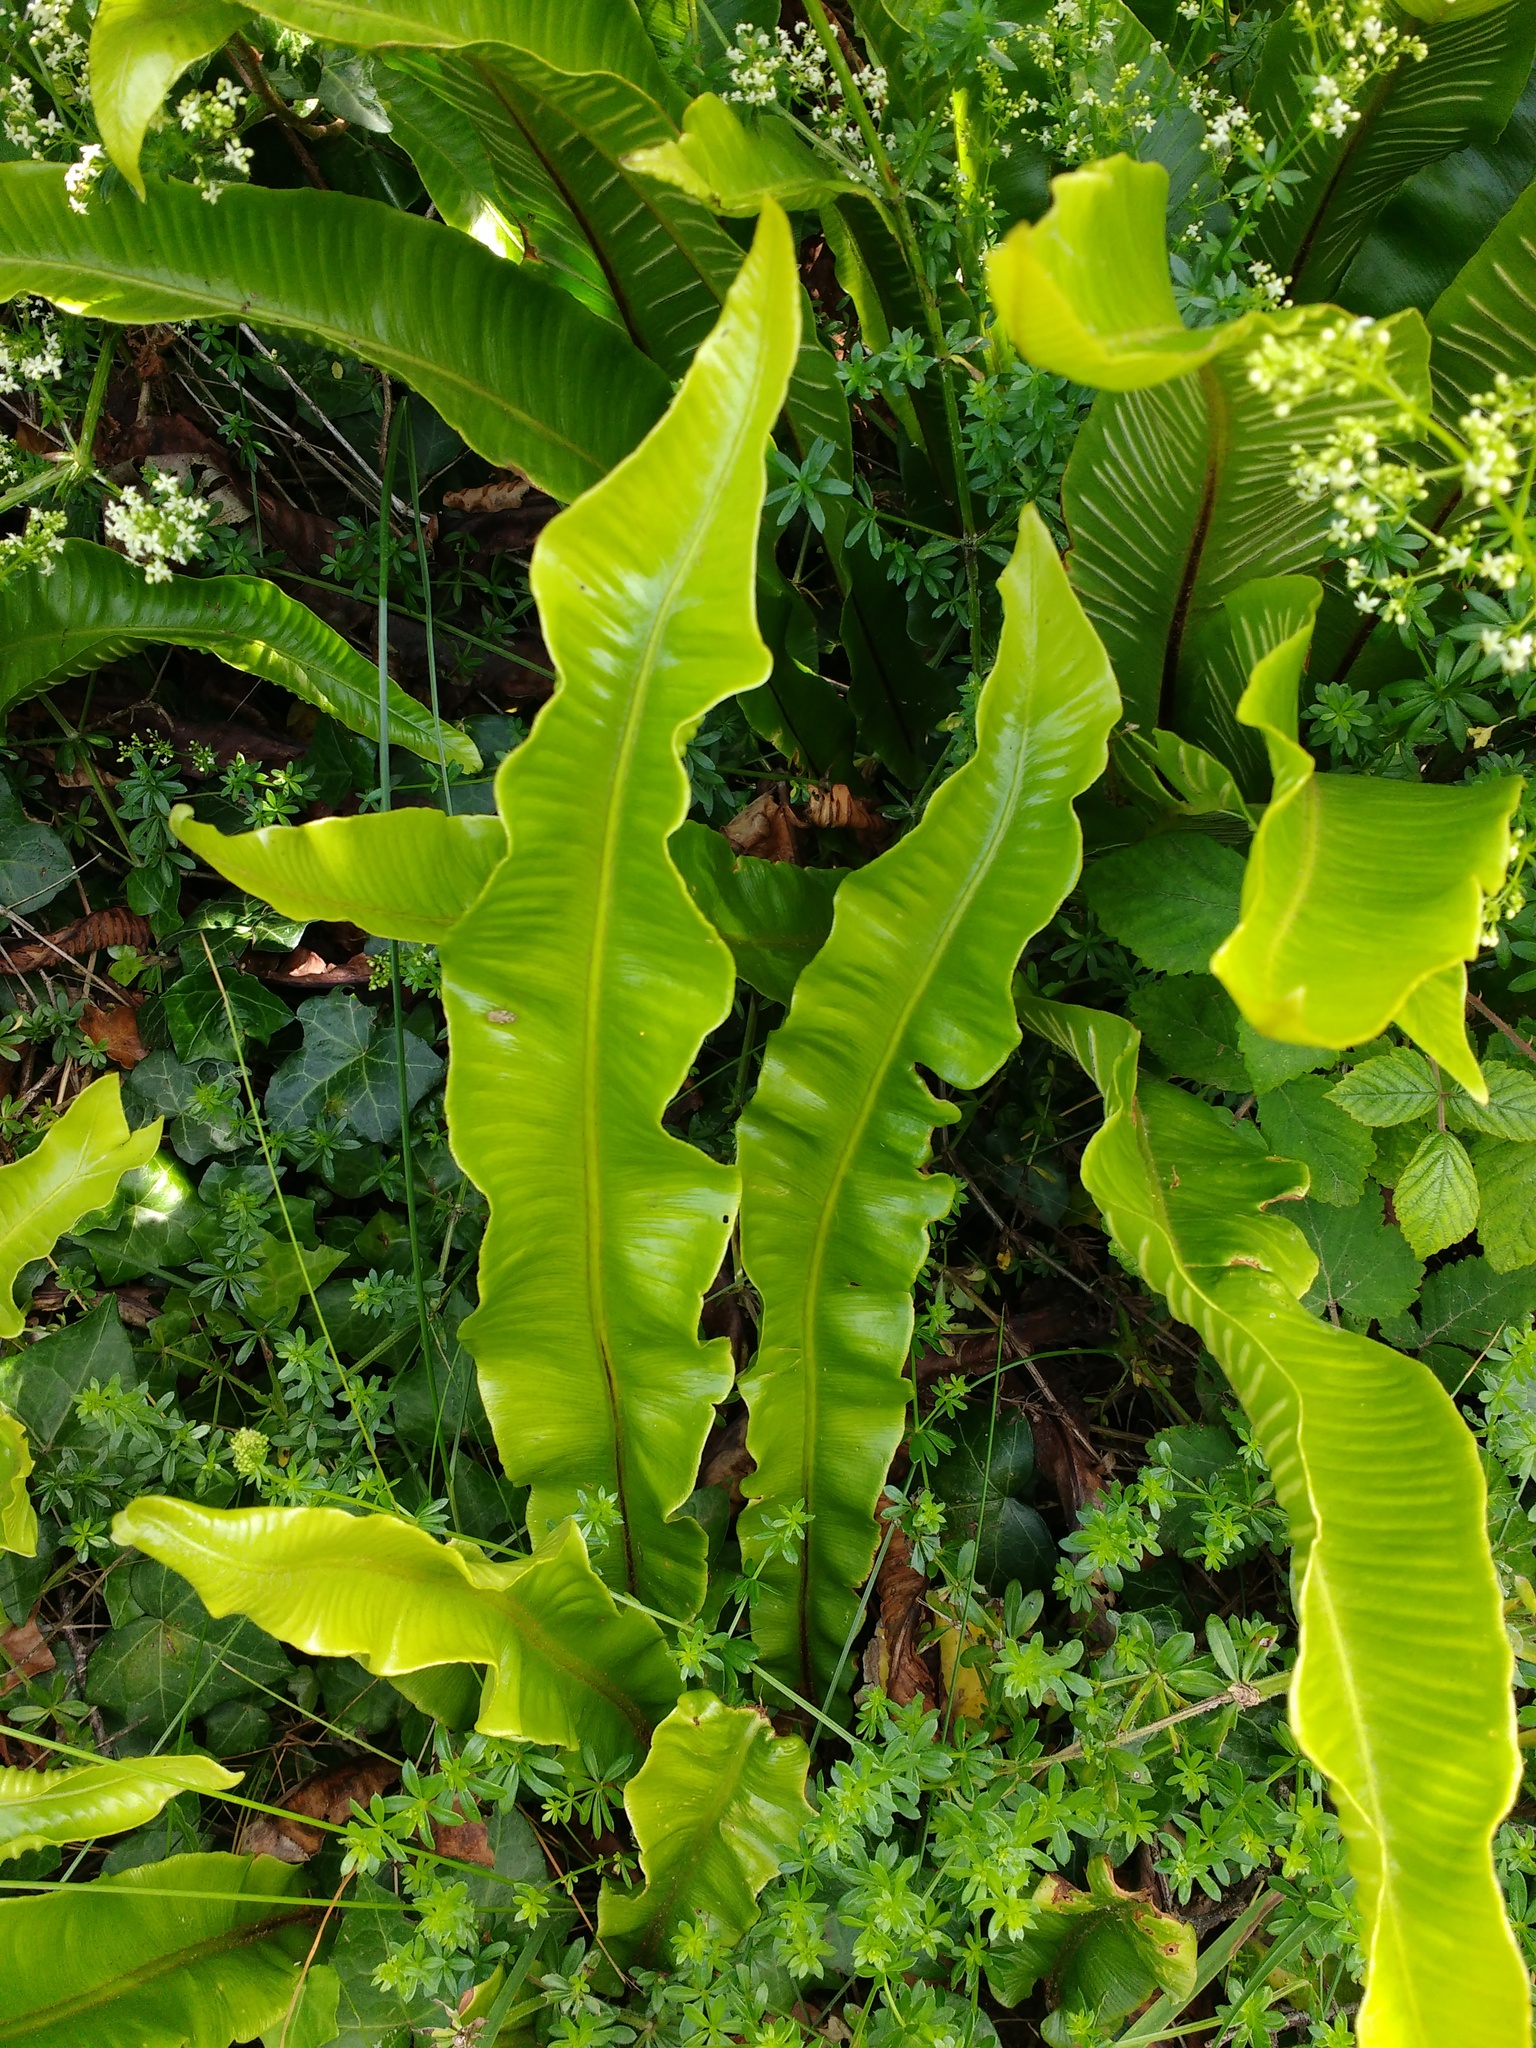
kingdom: Plantae
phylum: Tracheophyta
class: Polypodiopsida
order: Polypodiales
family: Aspleniaceae
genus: Asplenium
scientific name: Asplenium scolopendrium
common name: Hart's-tongue fern
